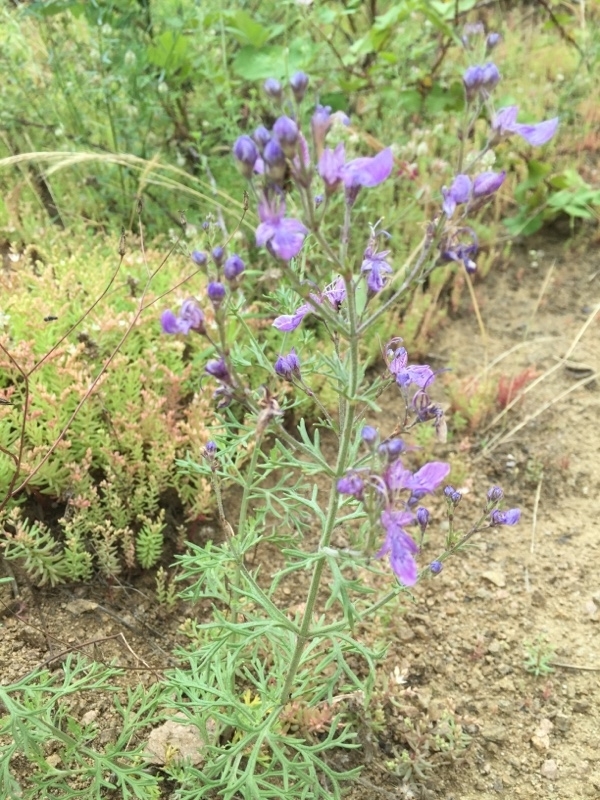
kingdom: Plantae
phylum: Tracheophyta
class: Magnoliopsida
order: Lamiales
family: Lamiaceae
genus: Teucrium
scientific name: Teucrium orientale
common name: Oriental germander
